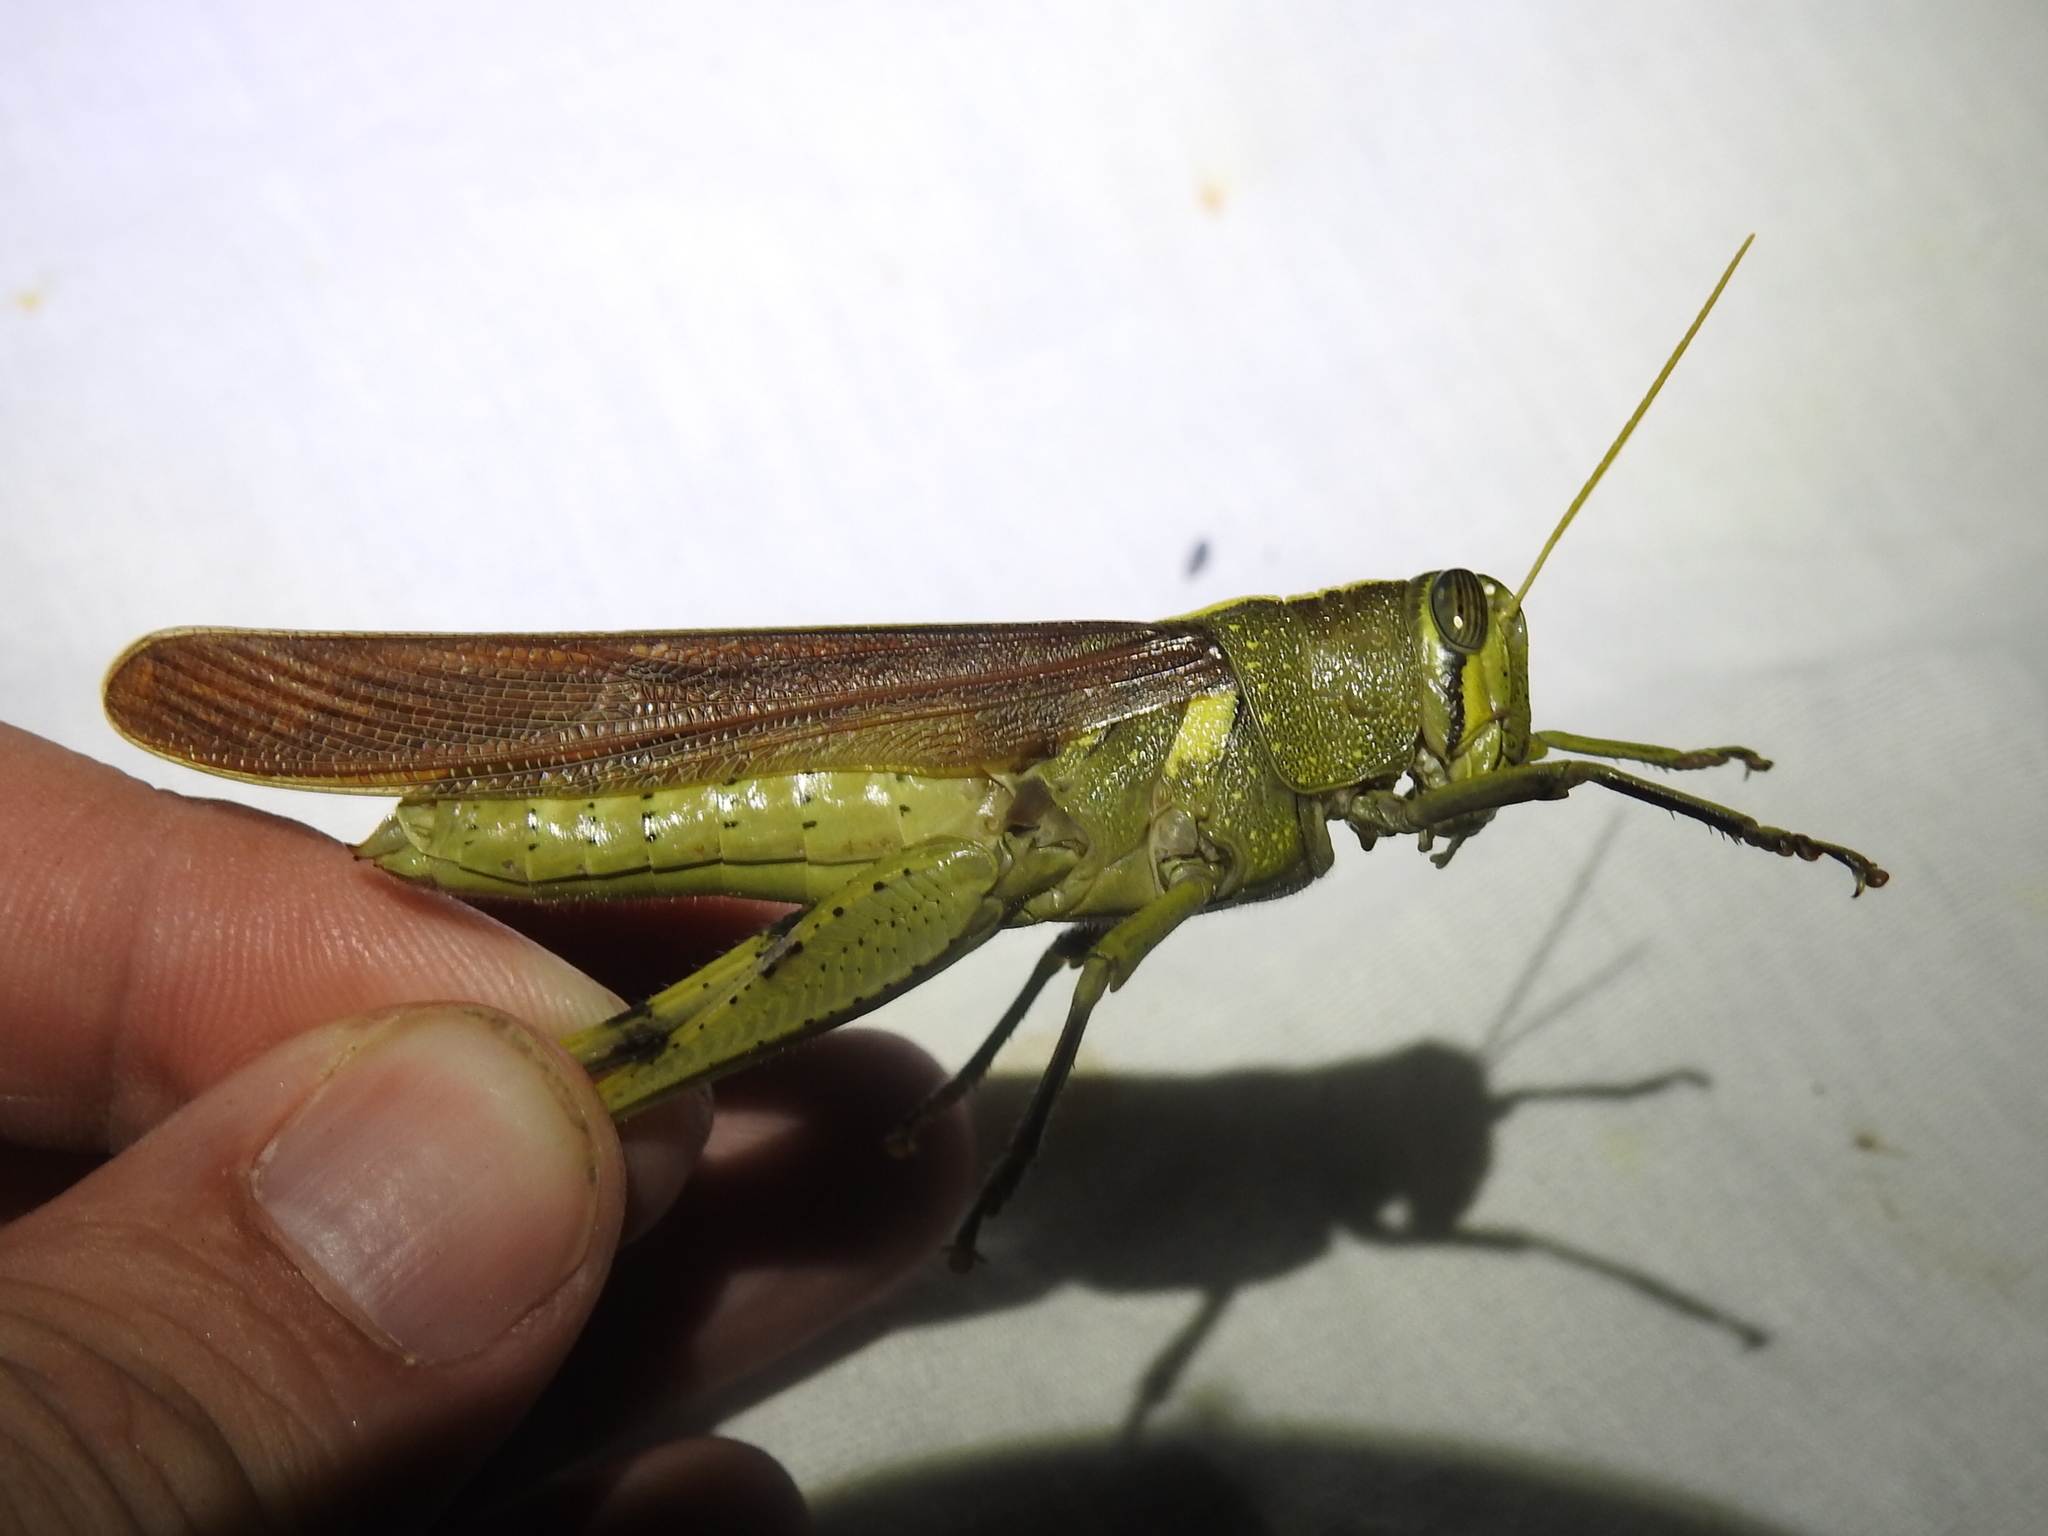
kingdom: Animalia
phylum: Arthropoda
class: Insecta
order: Orthoptera
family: Acrididae
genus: Schistocerca
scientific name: Schistocerca obscura
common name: Obscure bird grasshopper
